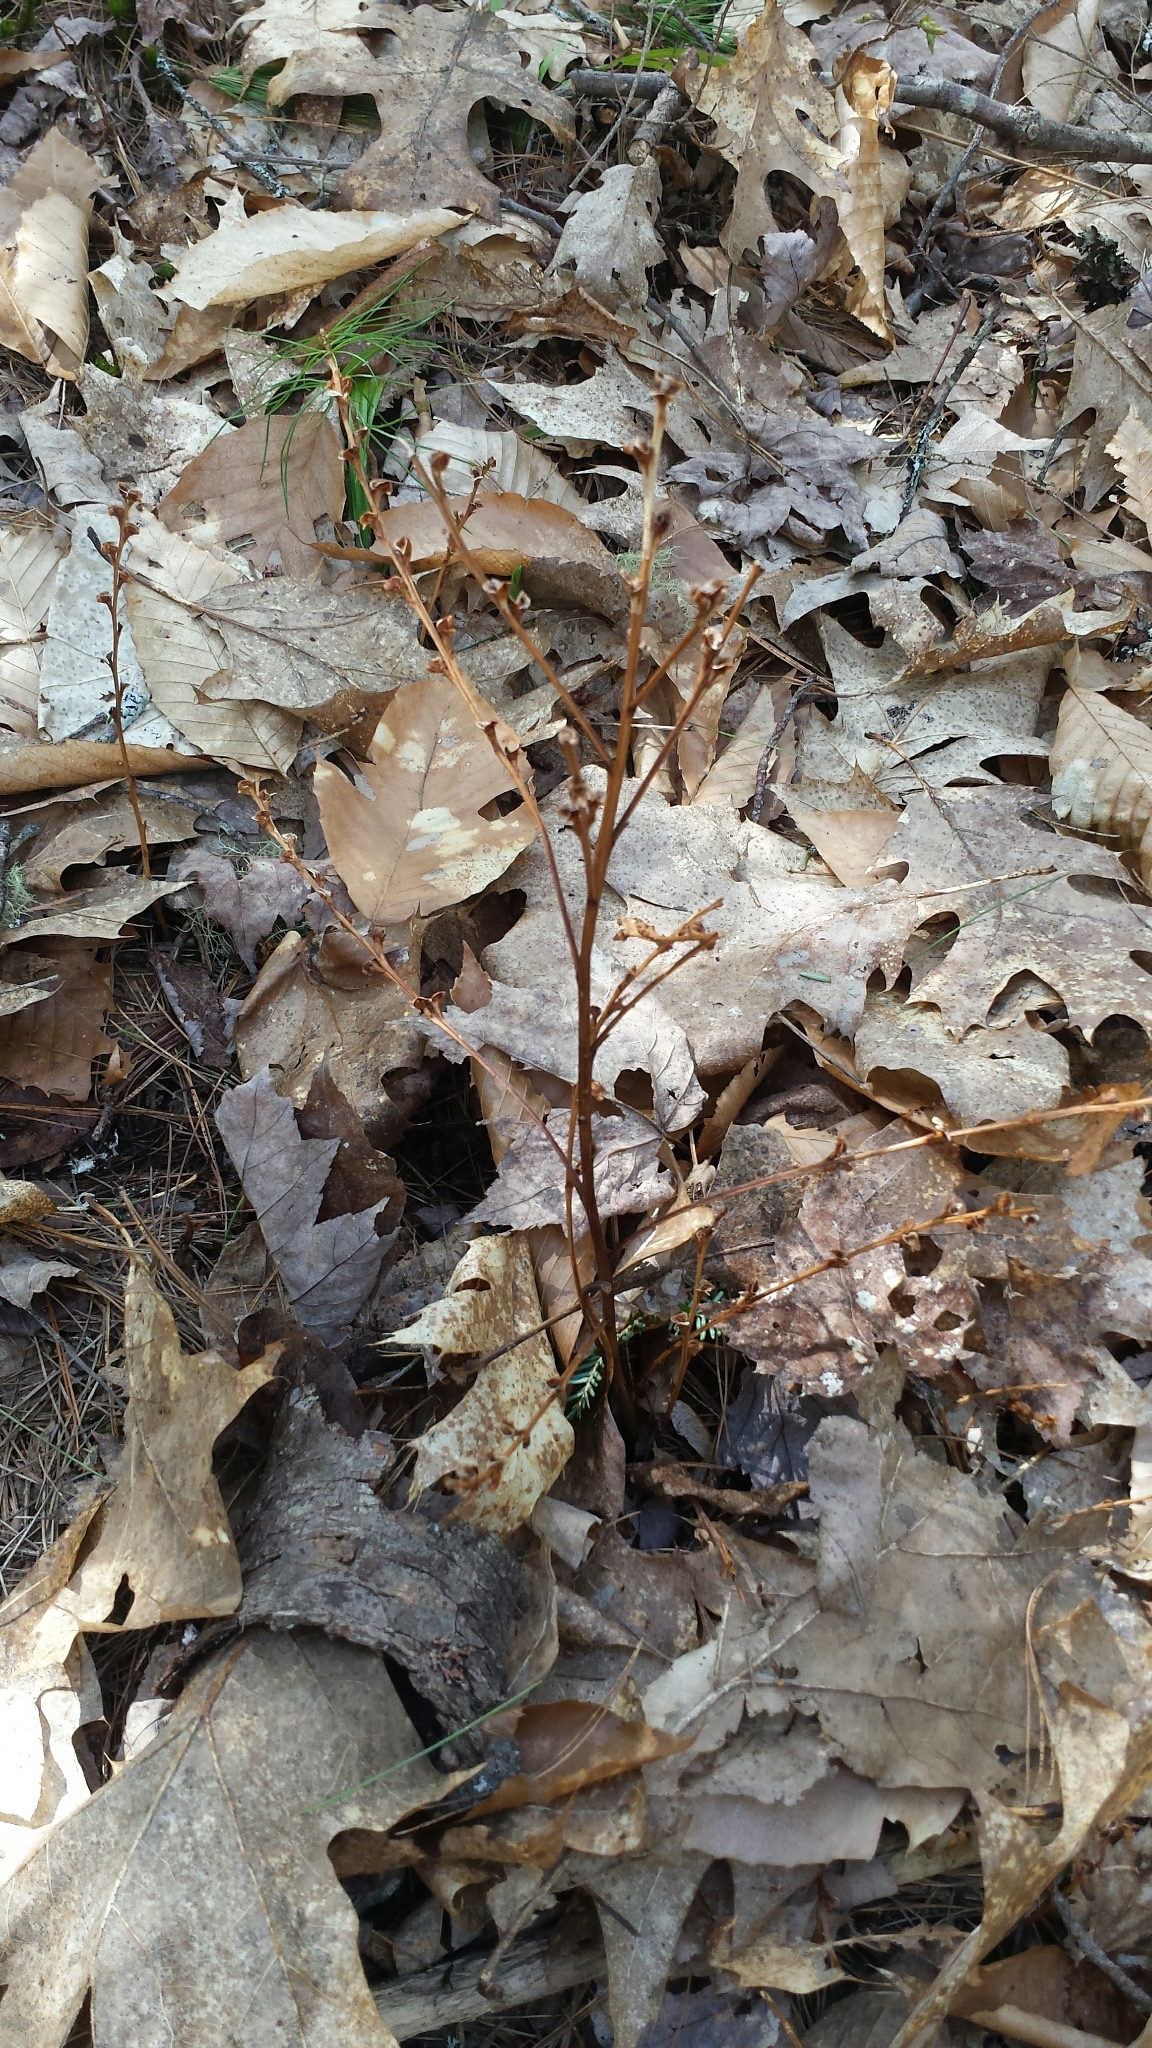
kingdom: Plantae
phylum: Tracheophyta
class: Magnoliopsida
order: Lamiales
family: Orobanchaceae
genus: Epifagus
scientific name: Epifagus virginiana
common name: Beechdrops
